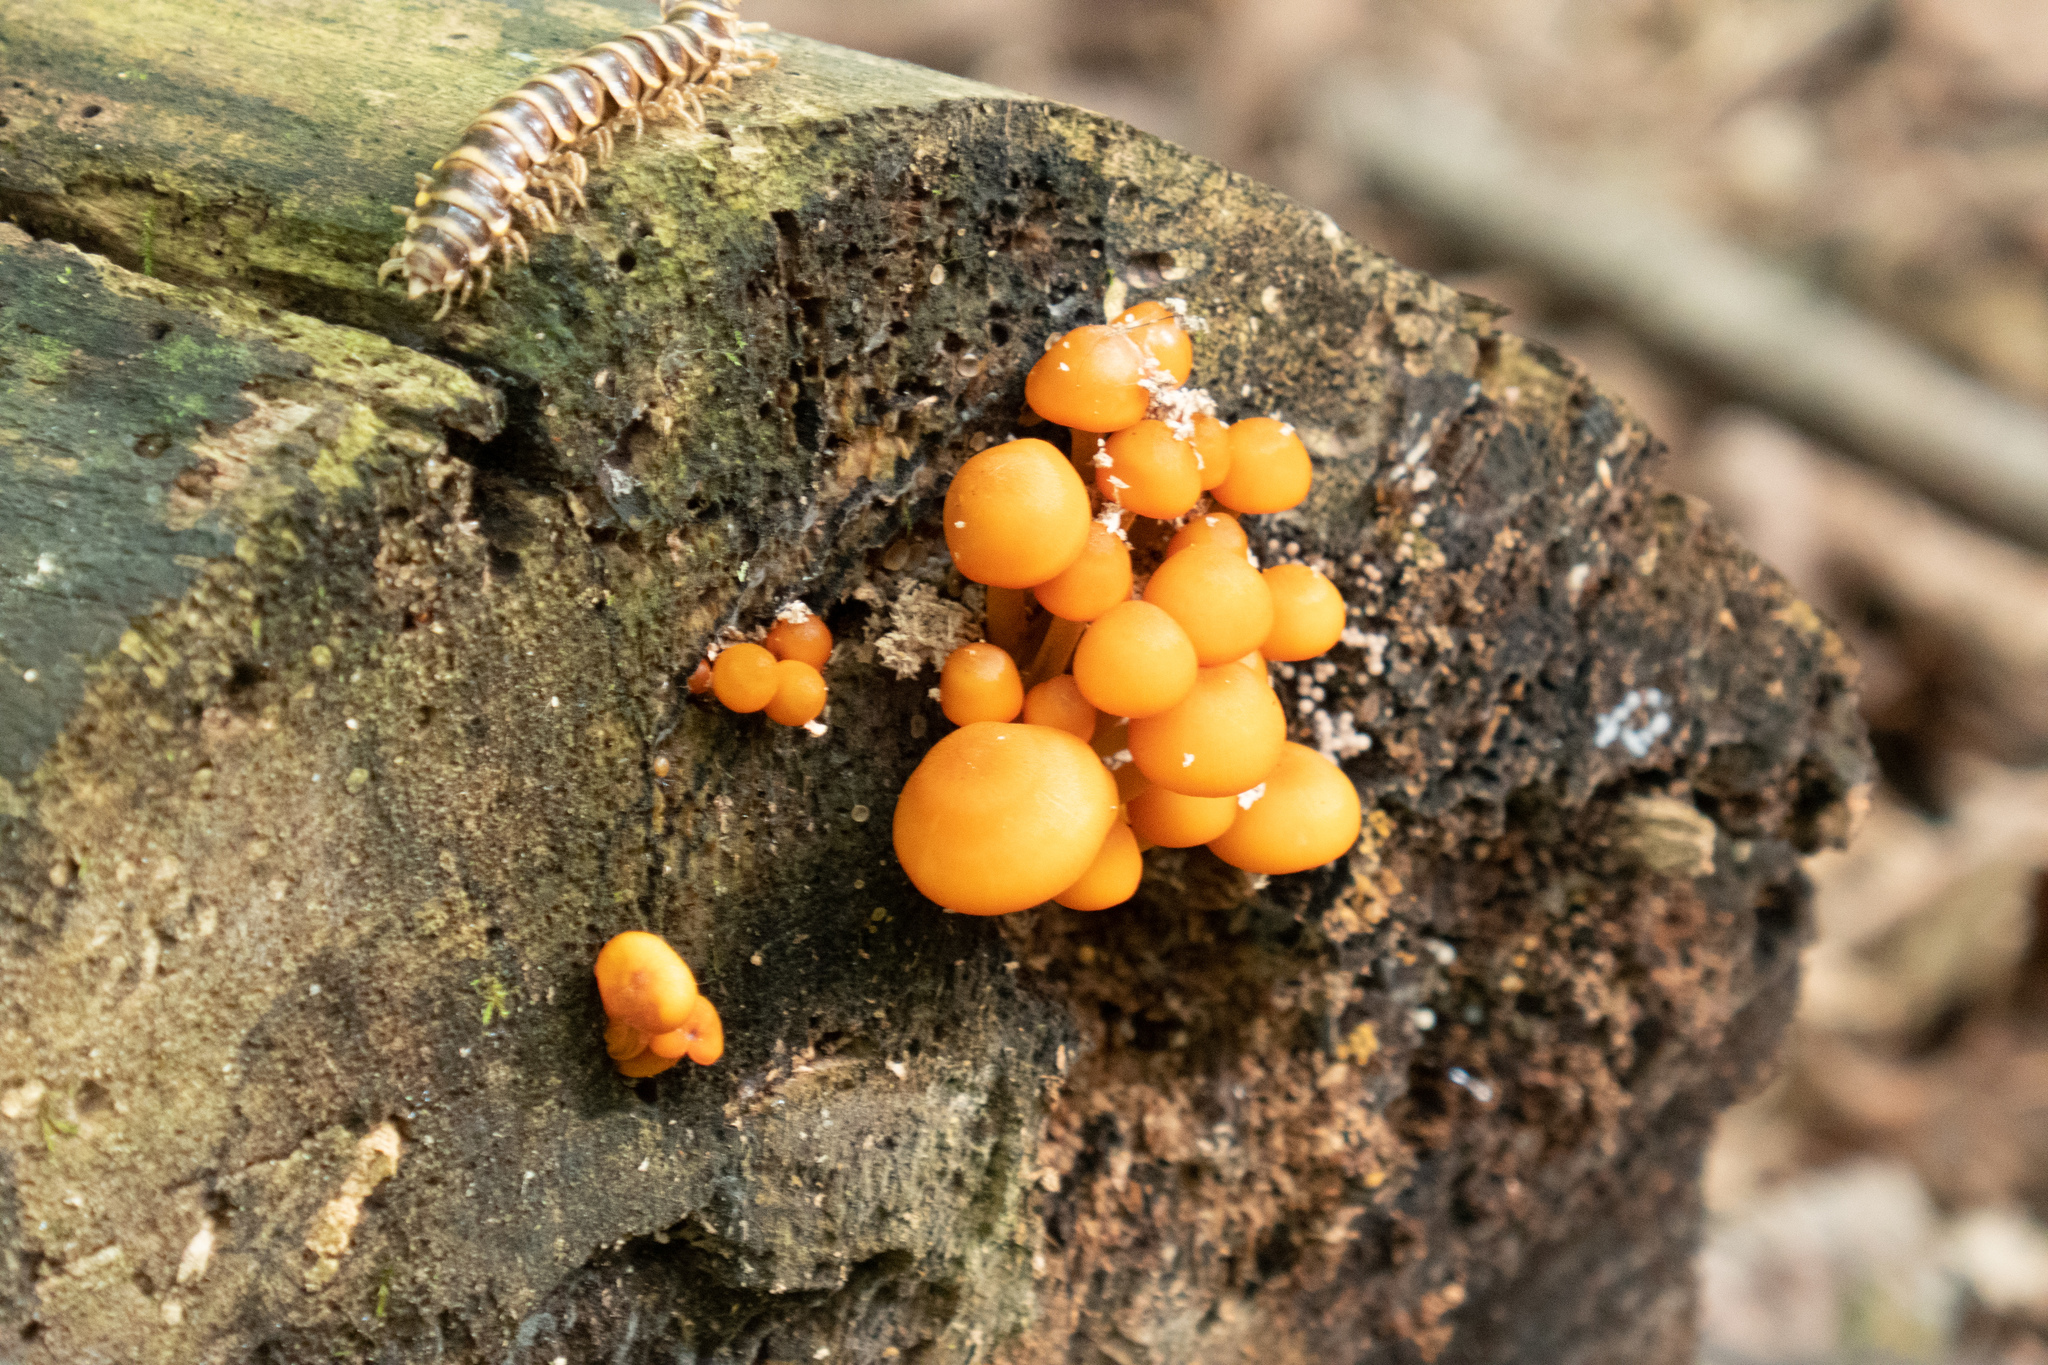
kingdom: Fungi
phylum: Basidiomycota
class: Agaricomycetes
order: Agaricales
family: Mycenaceae
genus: Mycena
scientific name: Mycena leaiana
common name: Orange mycena
